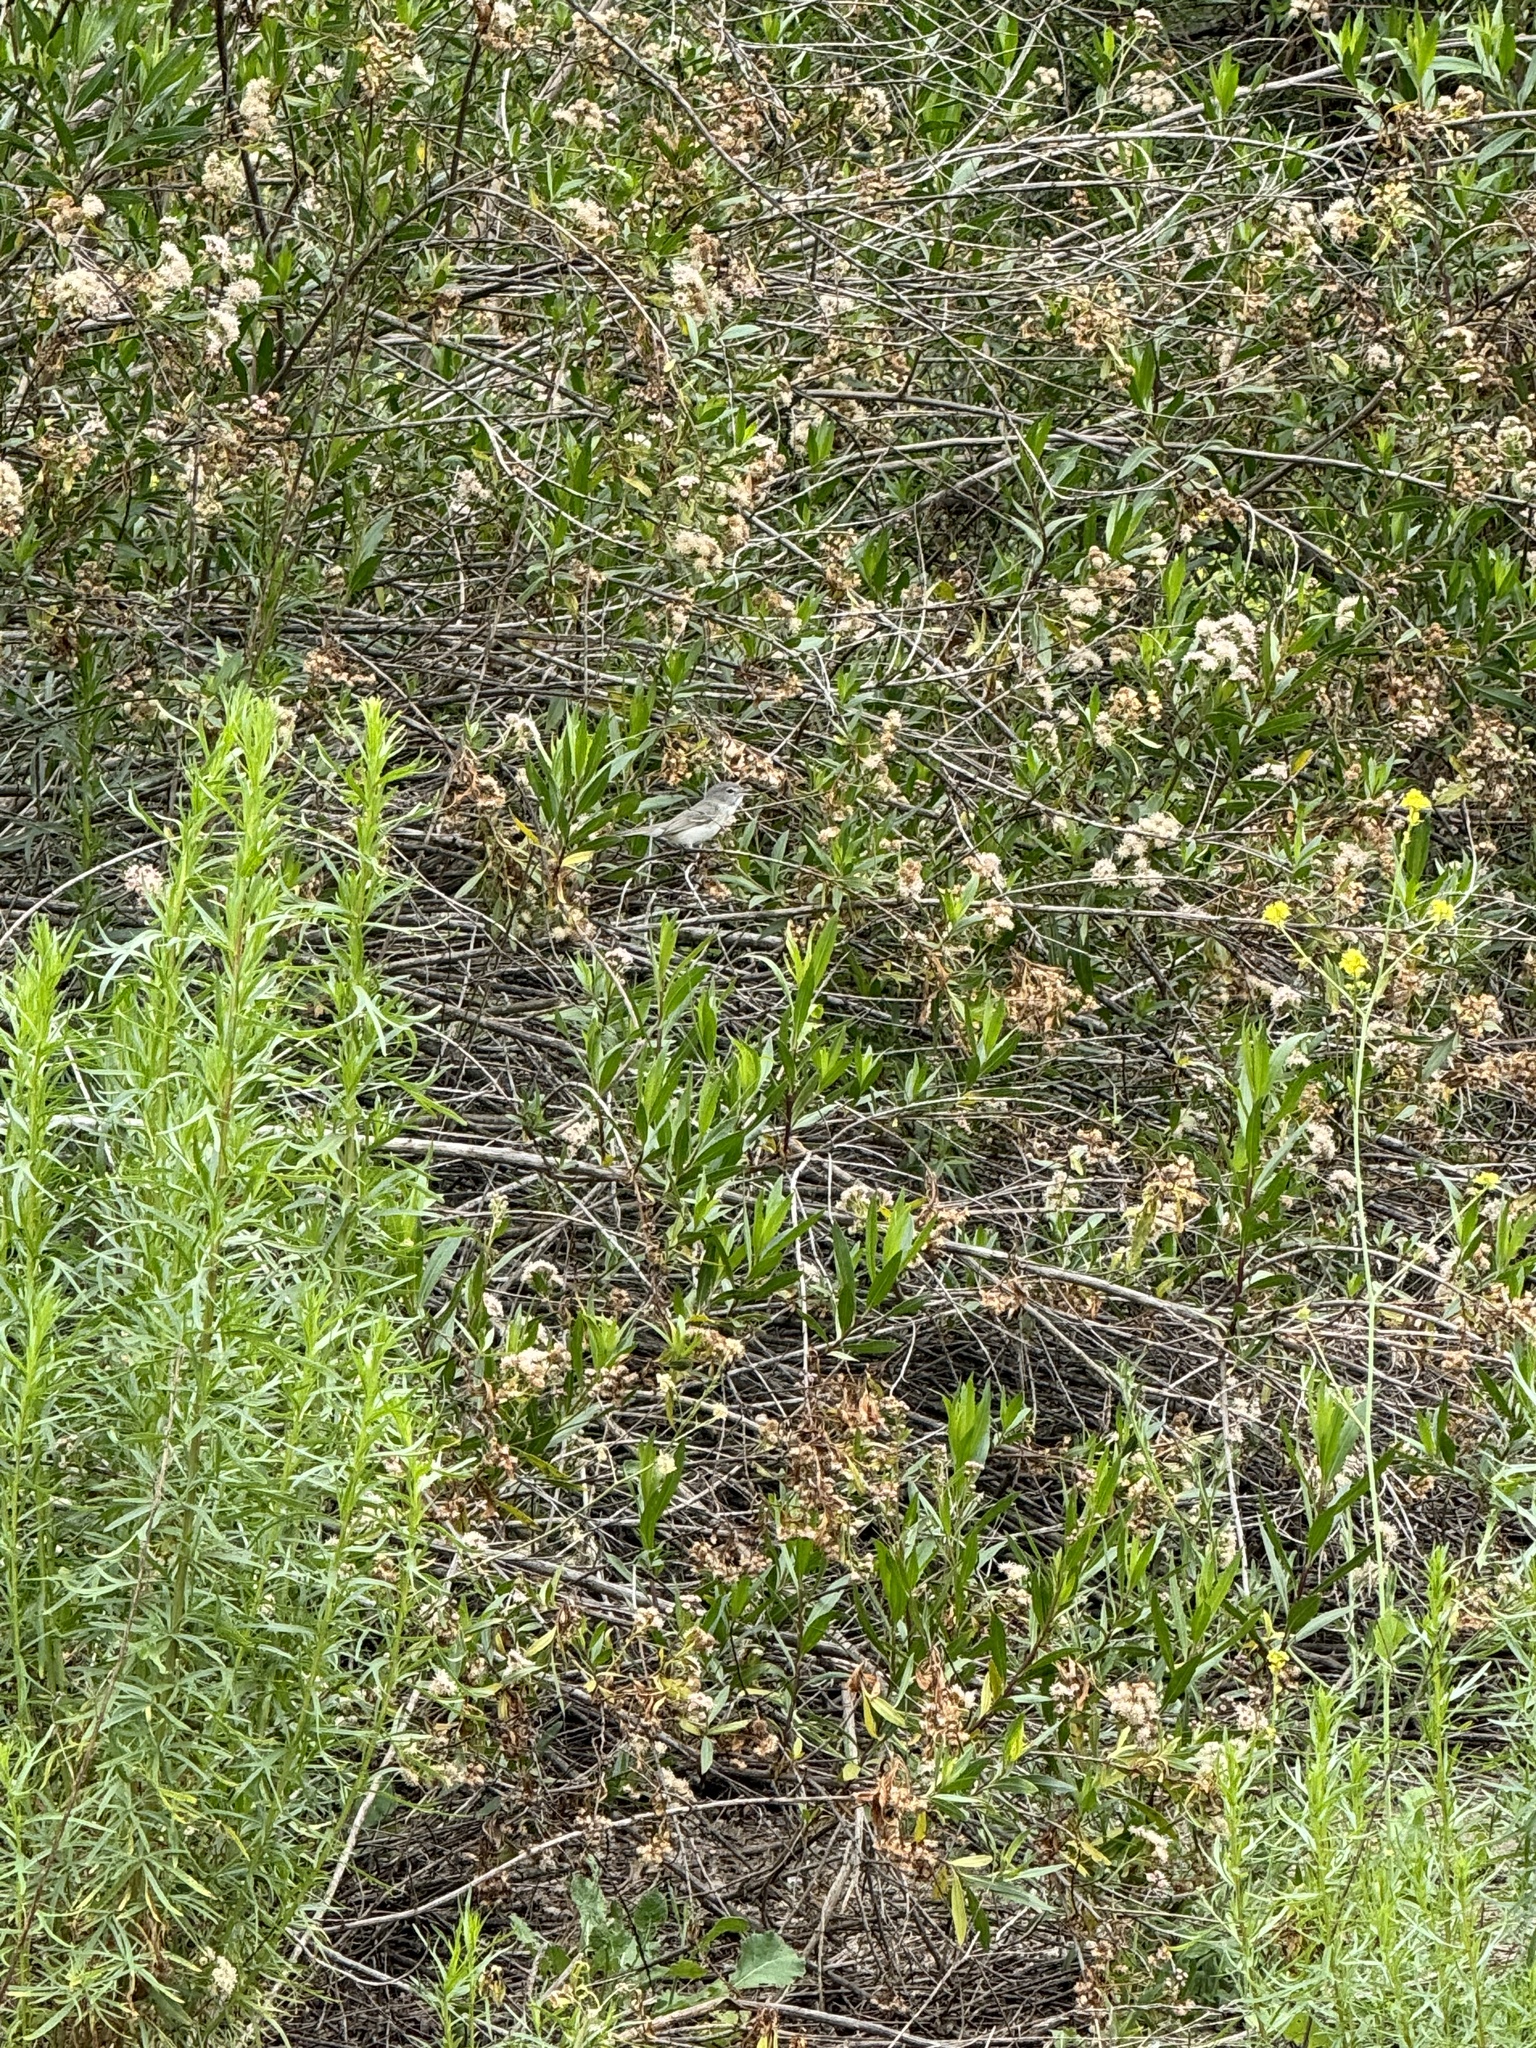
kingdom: Animalia
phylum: Chordata
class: Aves
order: Passeriformes
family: Vireonidae
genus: Vireo
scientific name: Vireo bellii
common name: Bell's vireo
